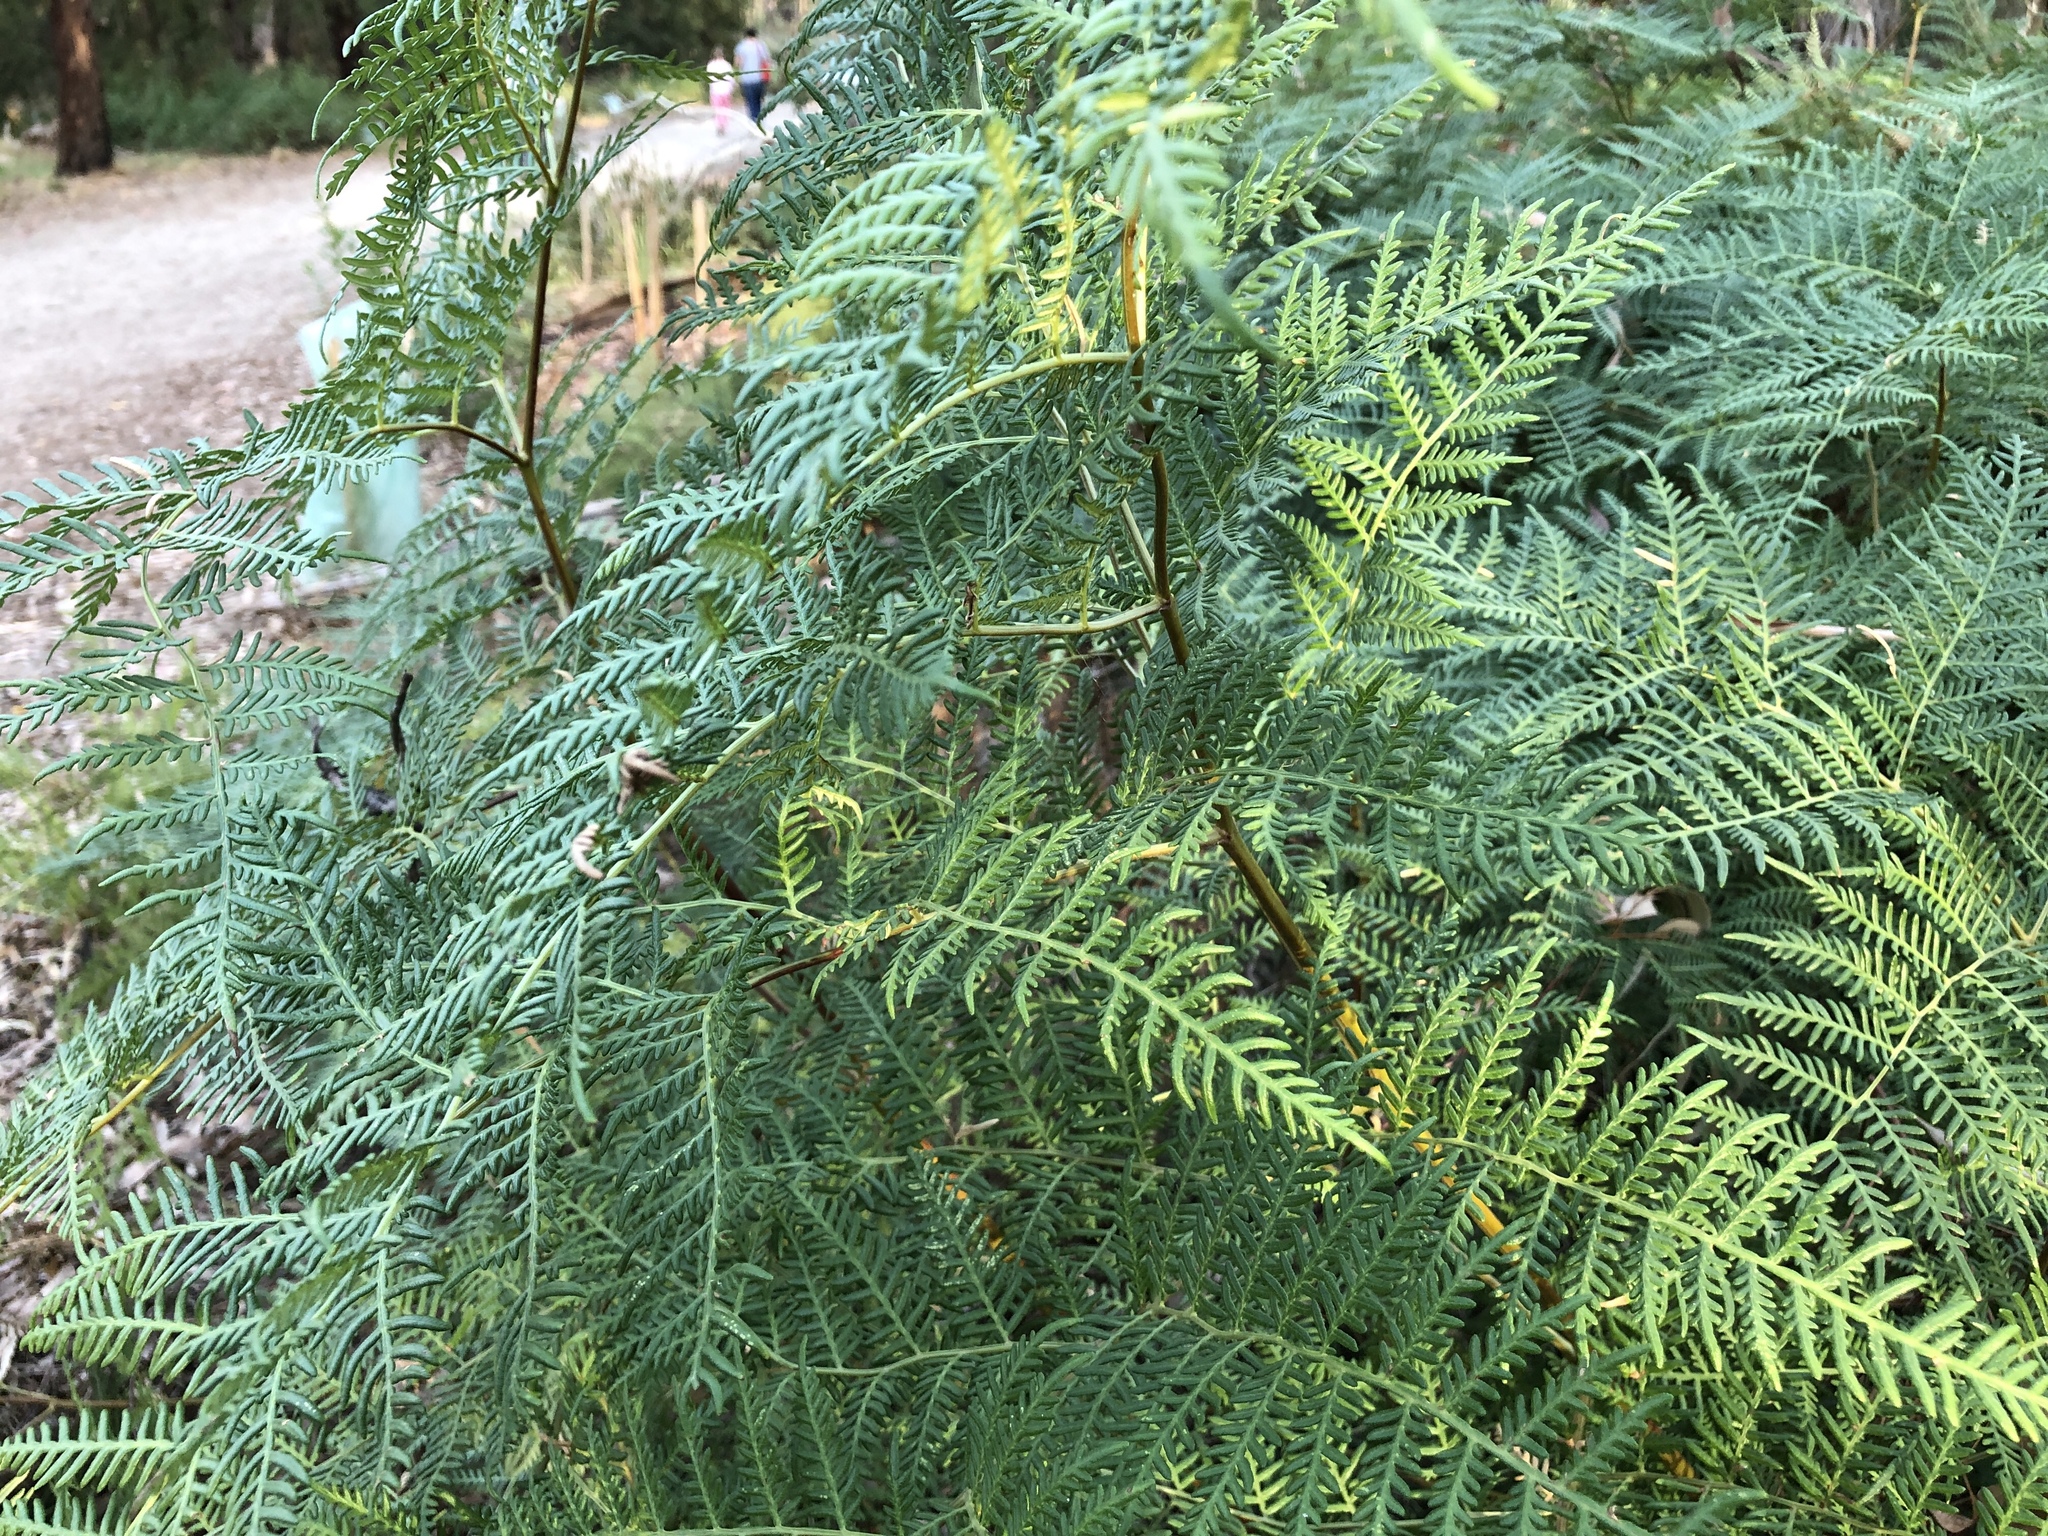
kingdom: Plantae
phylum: Tracheophyta
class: Polypodiopsida
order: Polypodiales
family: Dennstaedtiaceae
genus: Pteridium
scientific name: Pteridium esculentum
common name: Bracken fern
